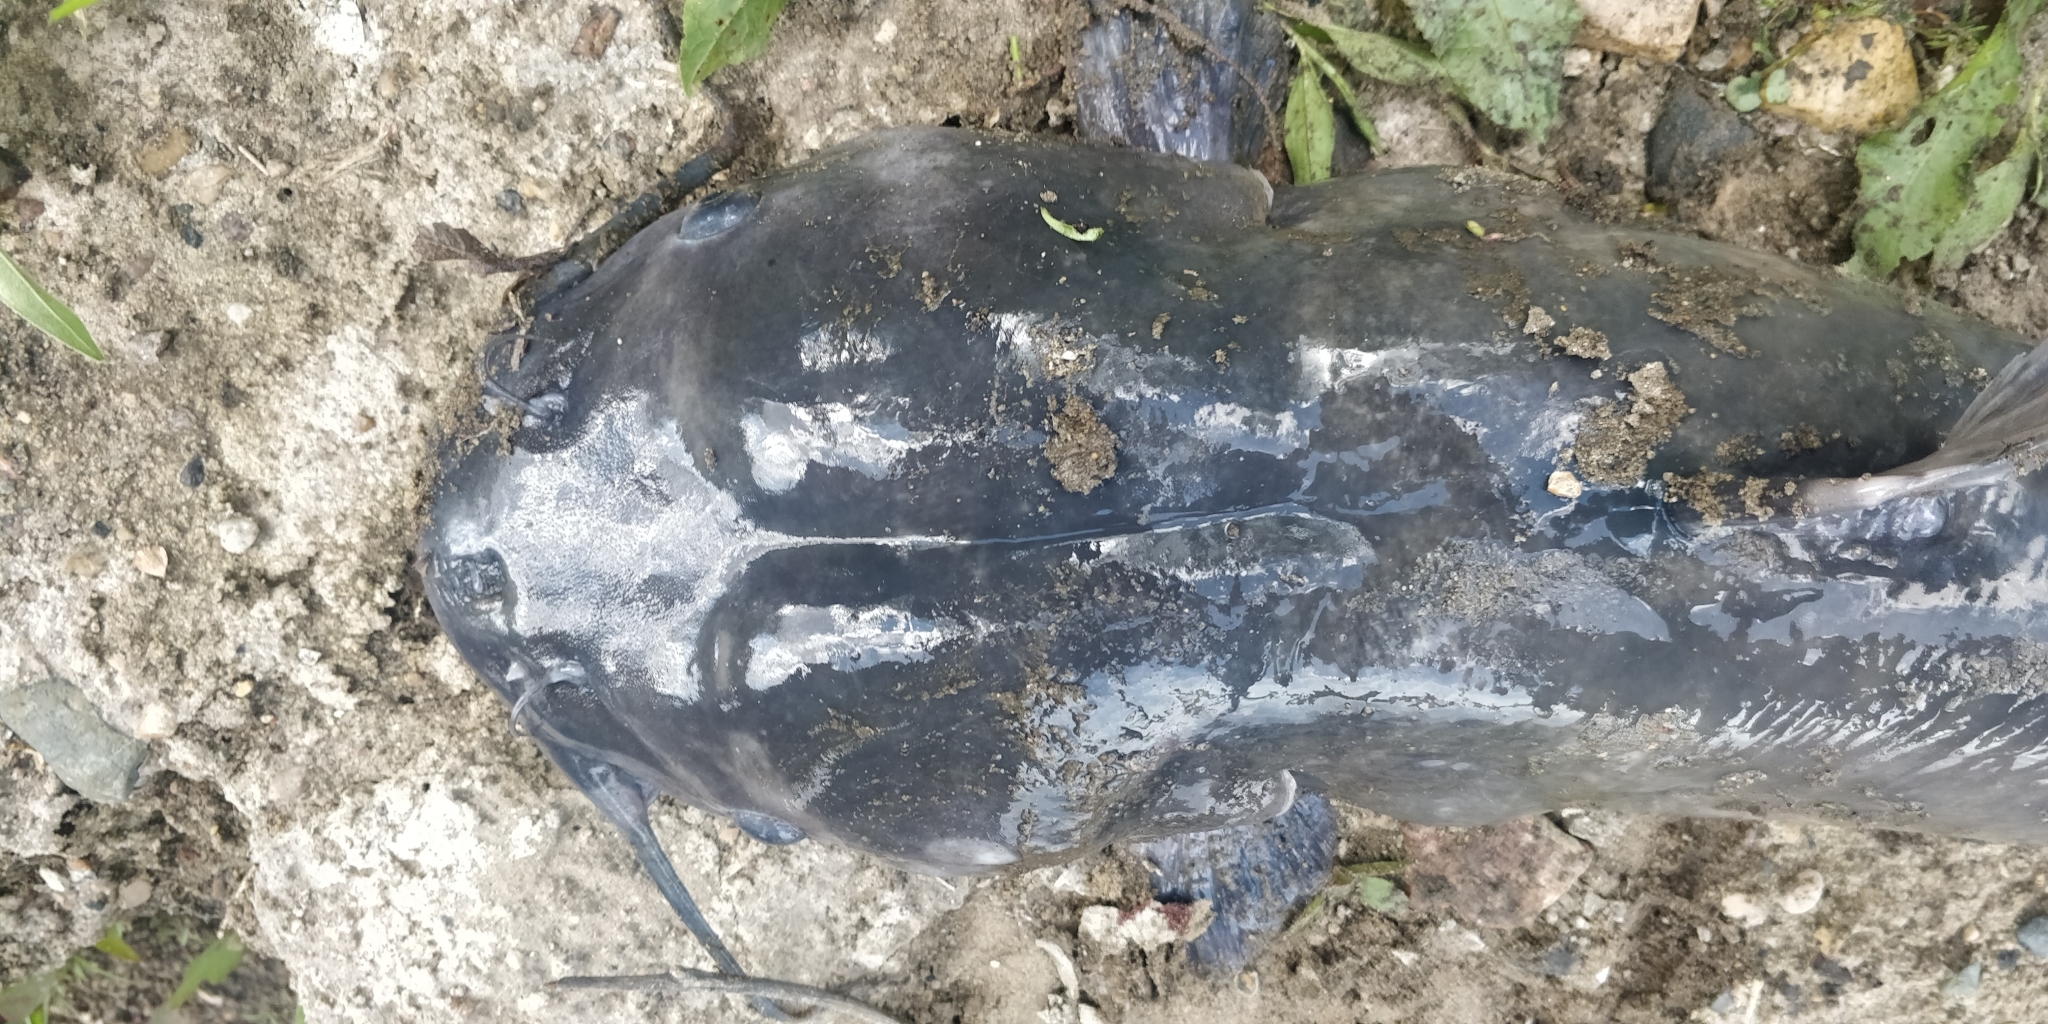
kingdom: Animalia
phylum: Chordata
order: Siluriformes
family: Ictaluridae
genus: Ictalurus
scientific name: Ictalurus punctatus
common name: Channel catfish
